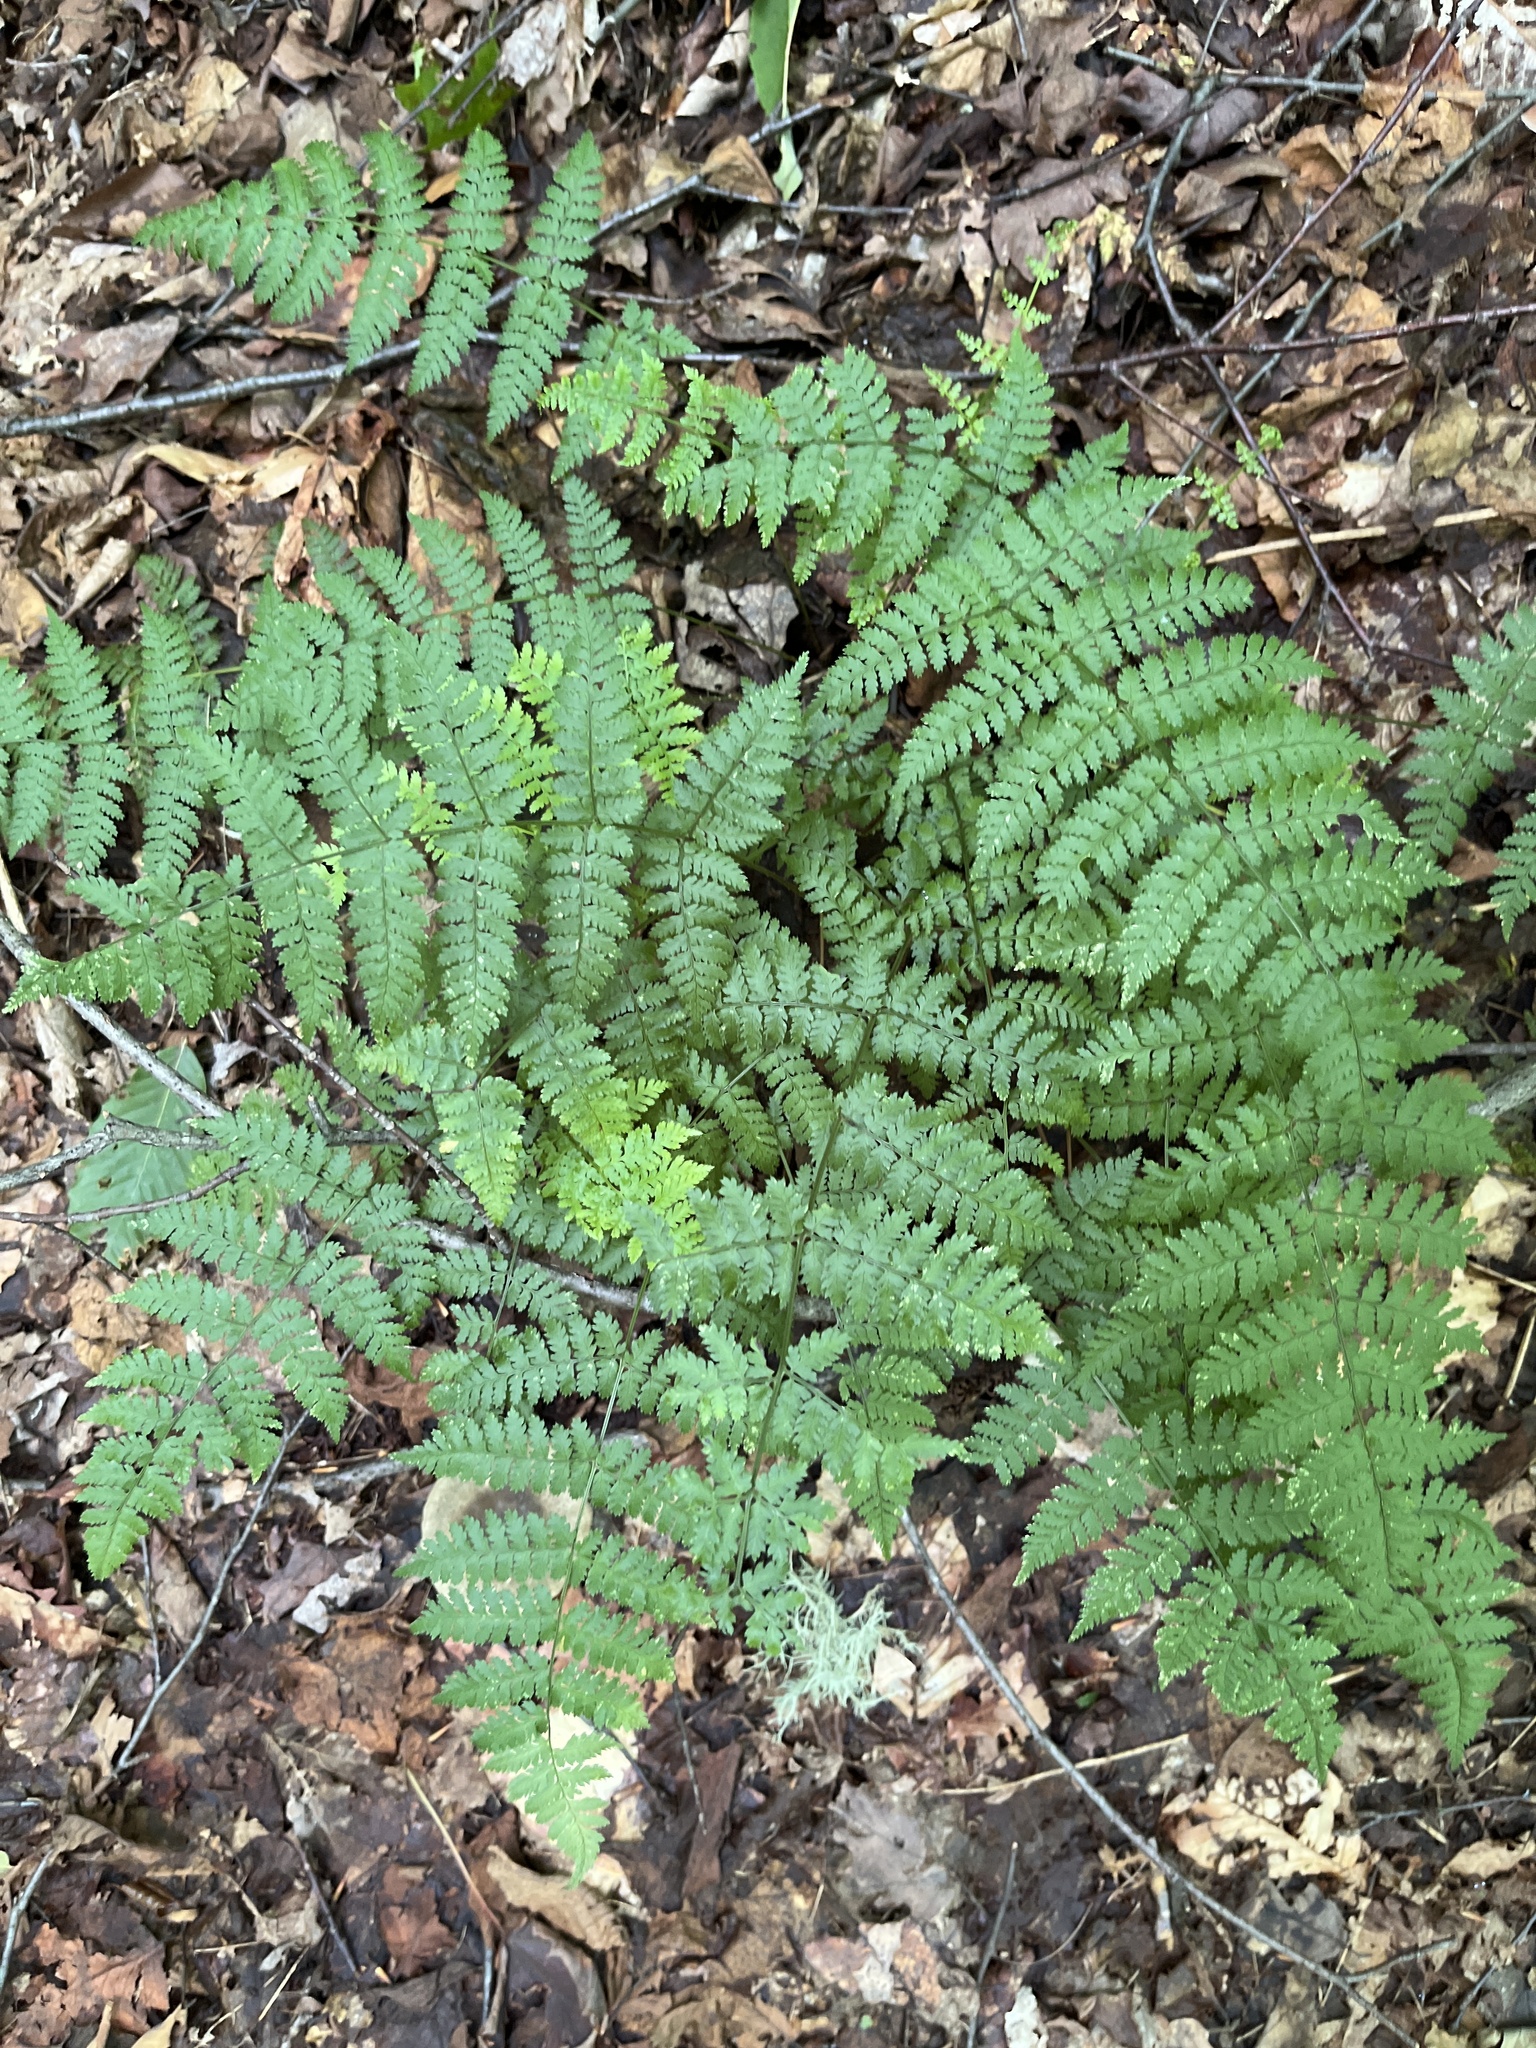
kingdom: Plantae
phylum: Tracheophyta
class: Polypodiopsida
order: Polypodiales
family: Dryopteridaceae
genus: Dryopteris
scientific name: Dryopteris intermedia
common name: Evergreen wood fern
